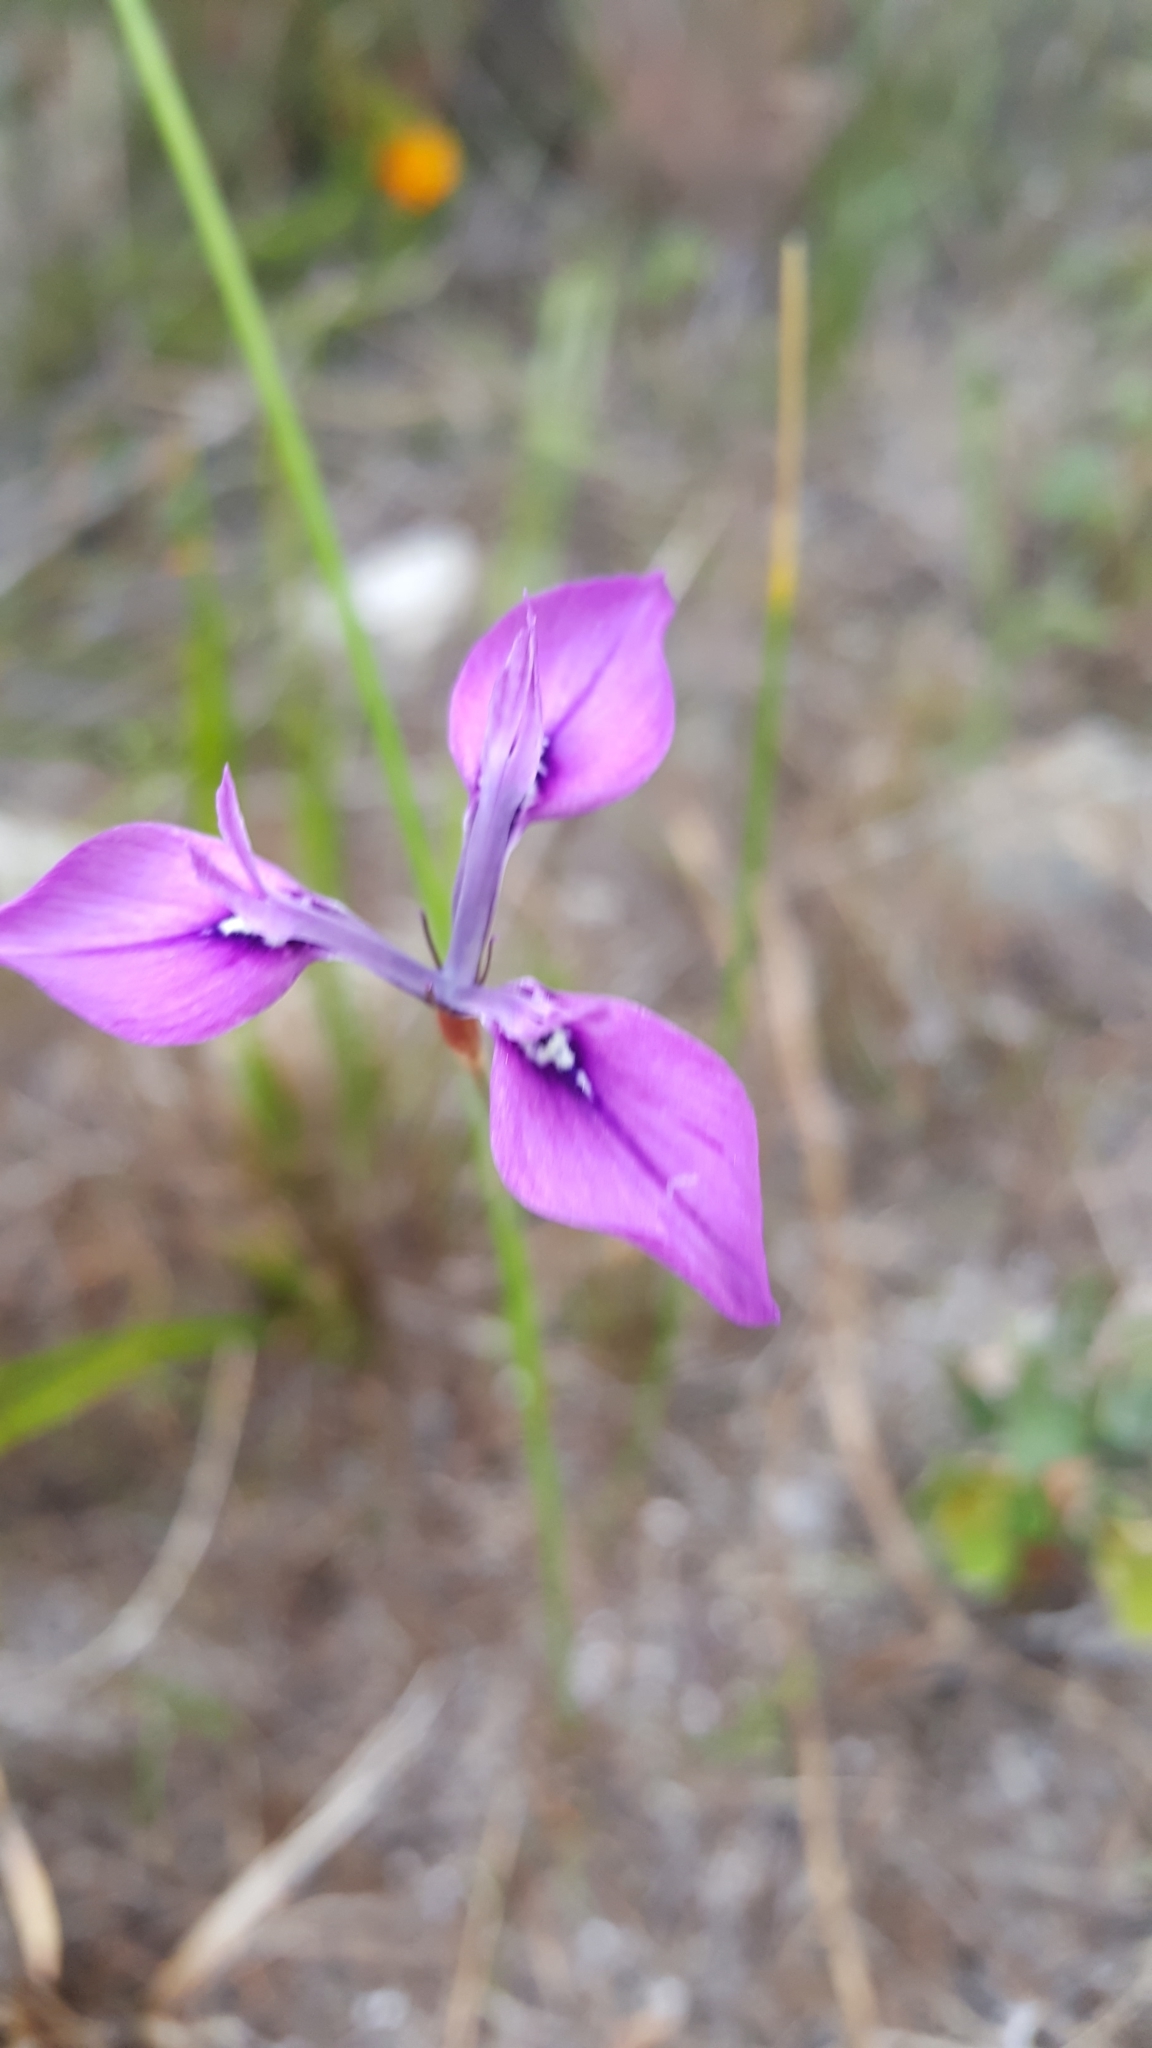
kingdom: Plantae
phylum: Tracheophyta
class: Liliopsida
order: Asparagales
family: Iridaceae
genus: Moraea
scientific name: Moraea tripetala
